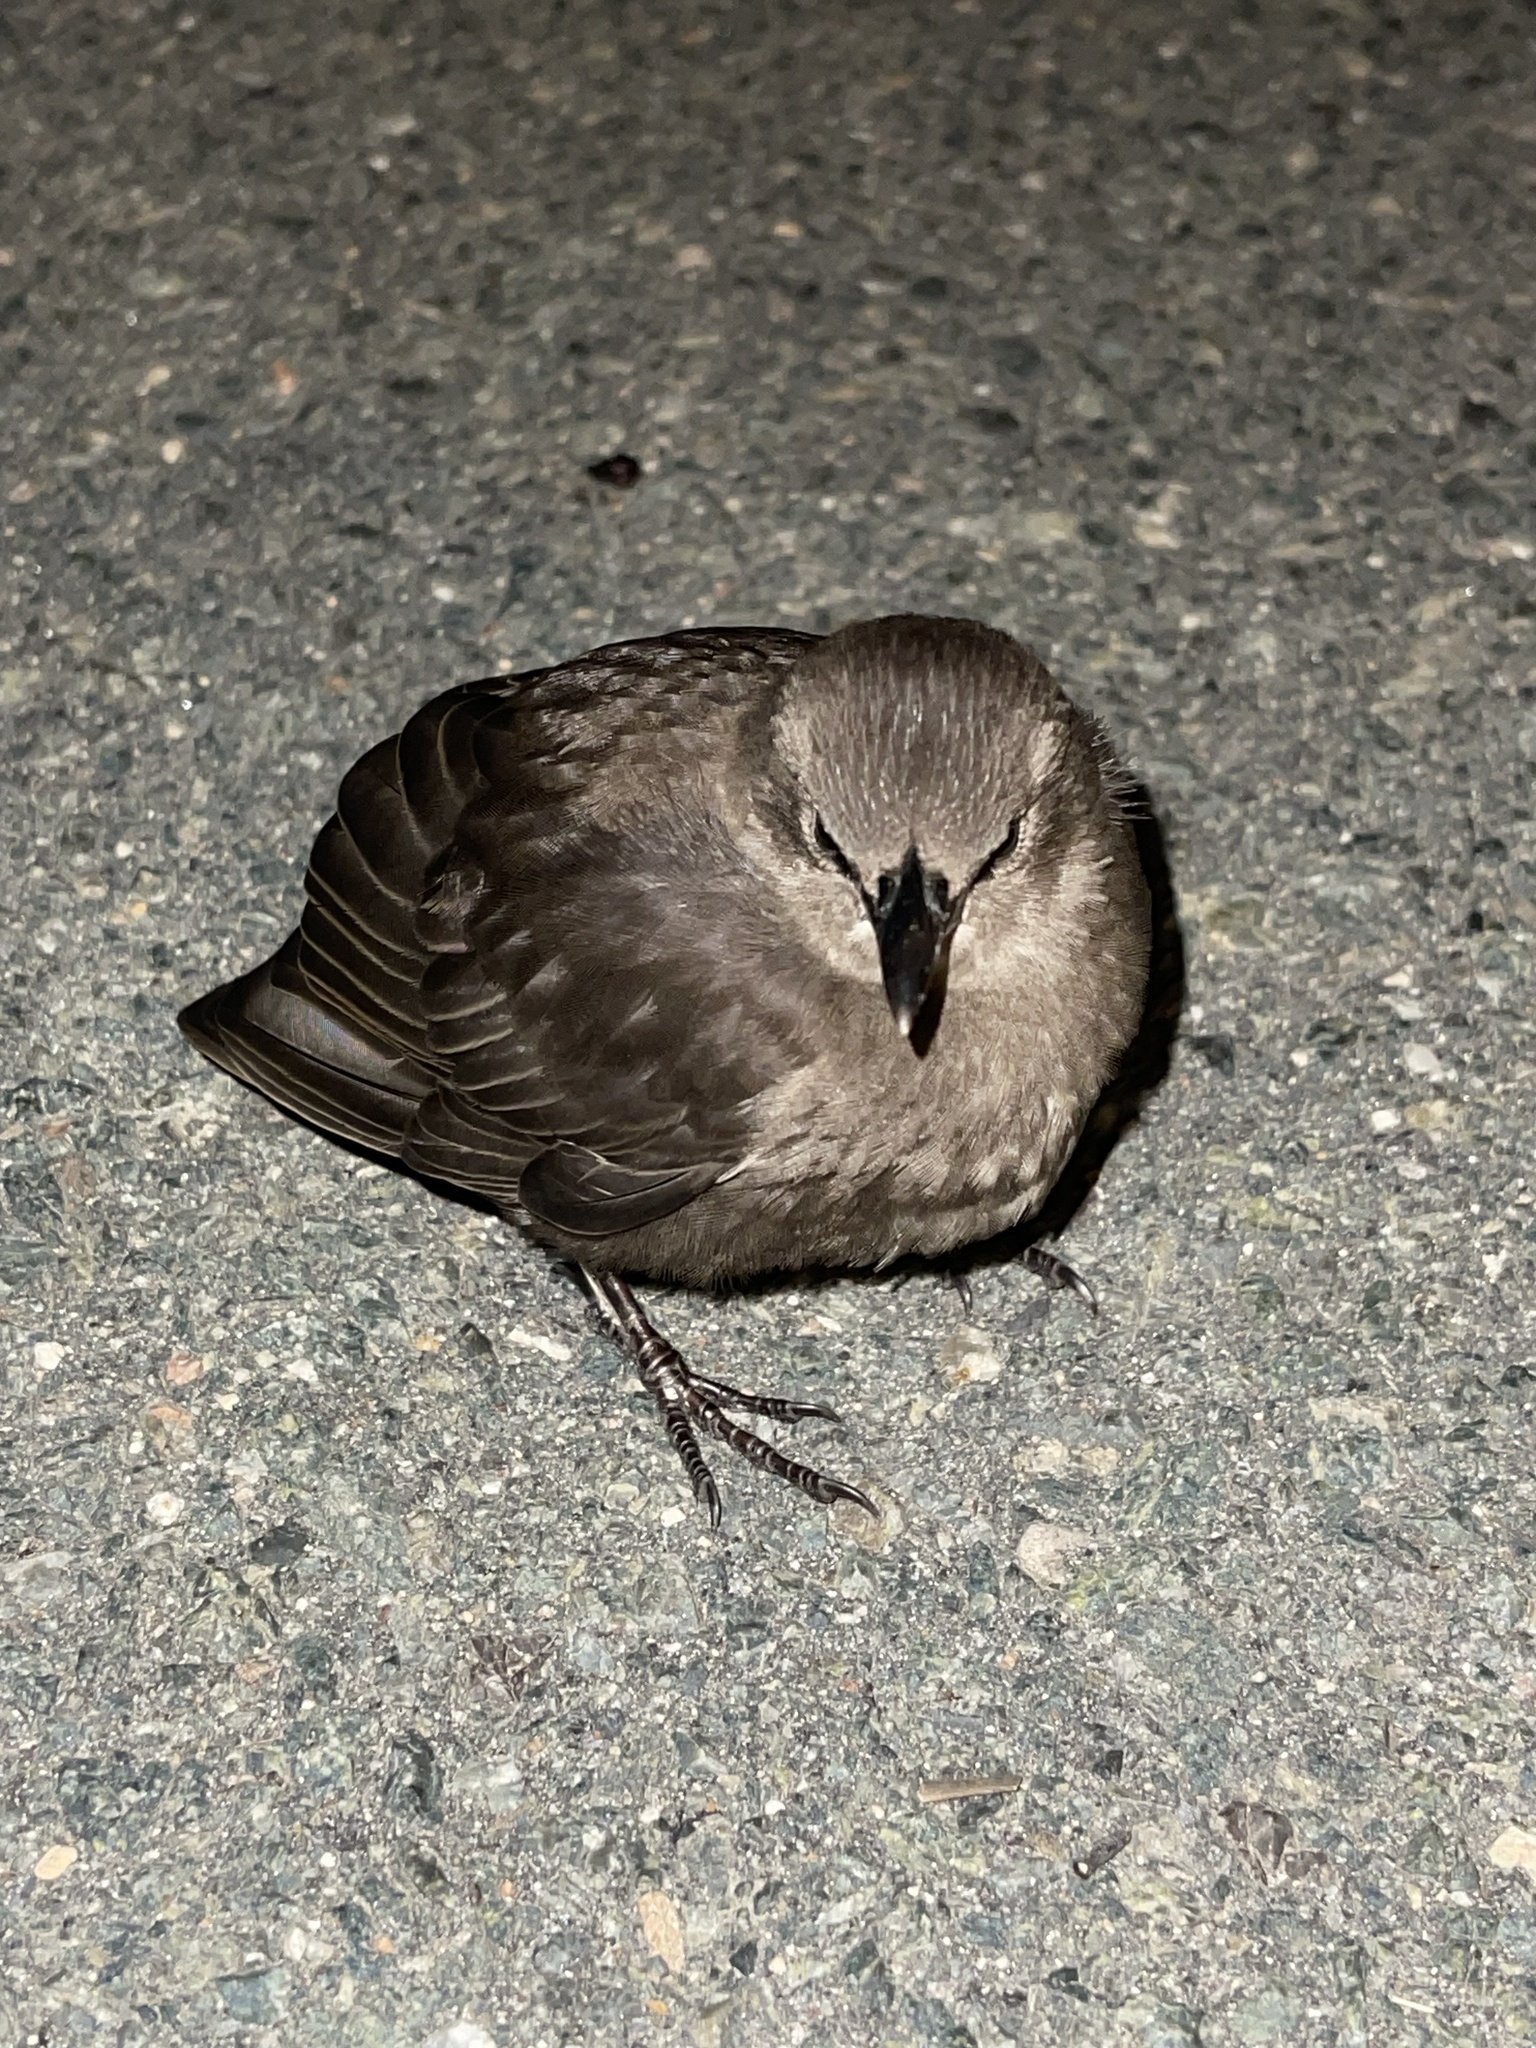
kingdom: Animalia
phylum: Chordata
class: Aves
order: Passeriformes
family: Sturnidae
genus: Sturnus
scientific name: Sturnus vulgaris
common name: Common starling
